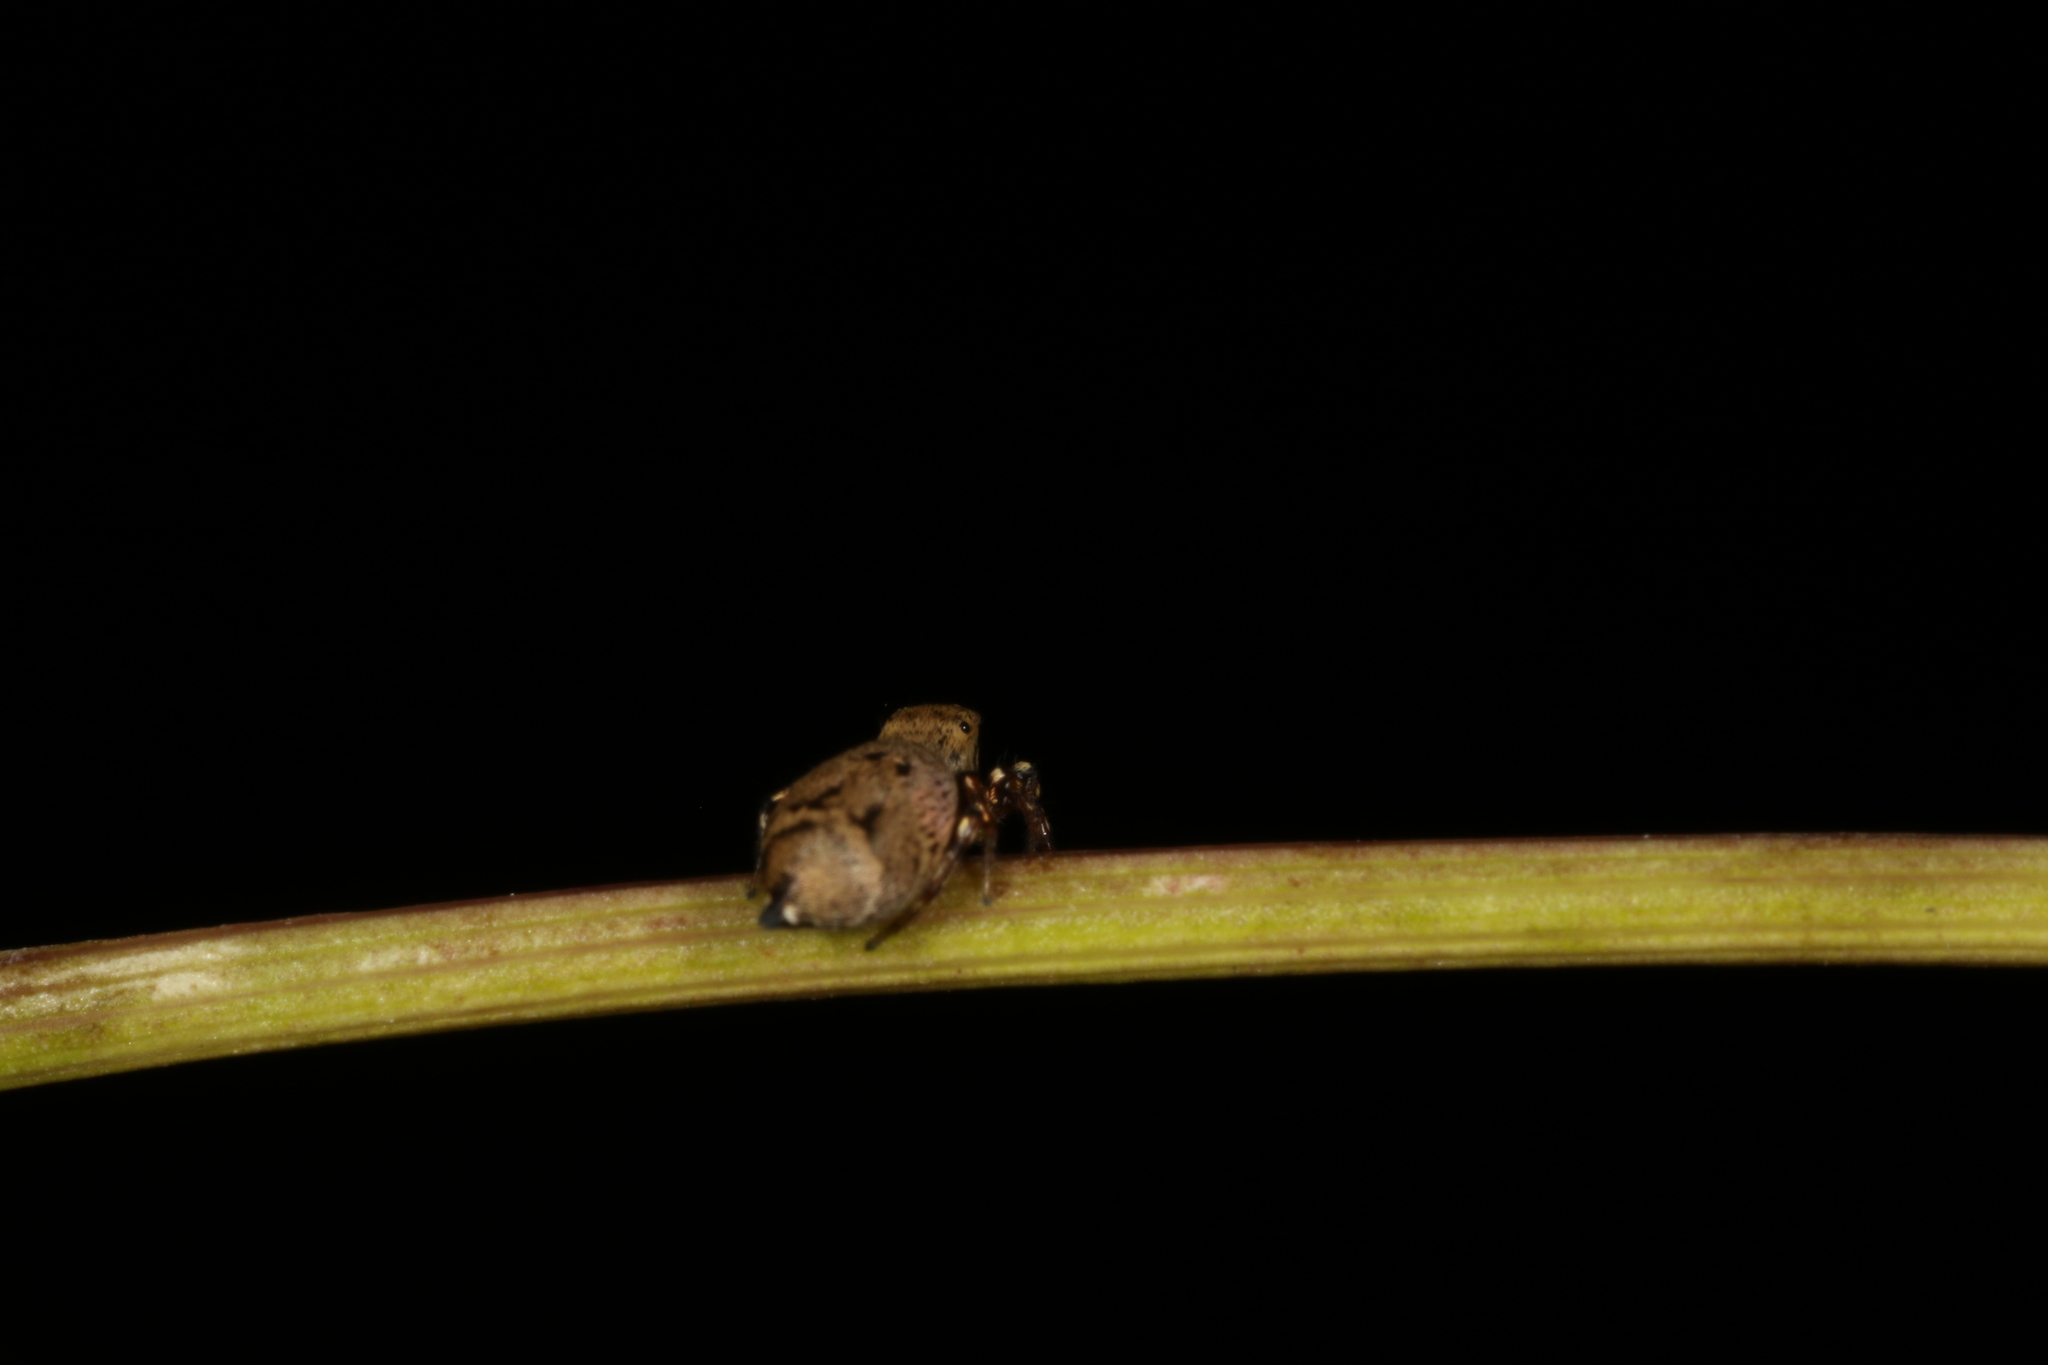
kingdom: Animalia
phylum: Arthropoda
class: Arachnida
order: Araneae
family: Salticidae
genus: Heliophanus
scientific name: Heliophanus hamifer
